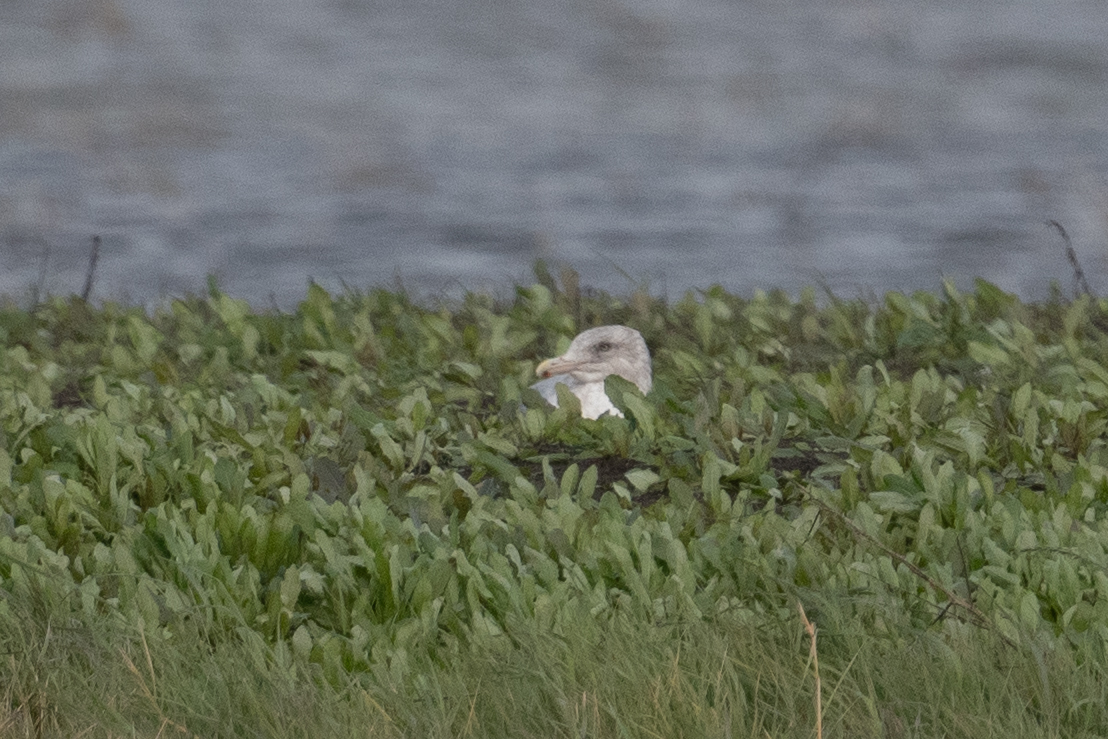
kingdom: Animalia
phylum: Chordata
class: Aves
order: Charadriiformes
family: Laridae
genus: Larus
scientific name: Larus argentatus
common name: Herring gull
